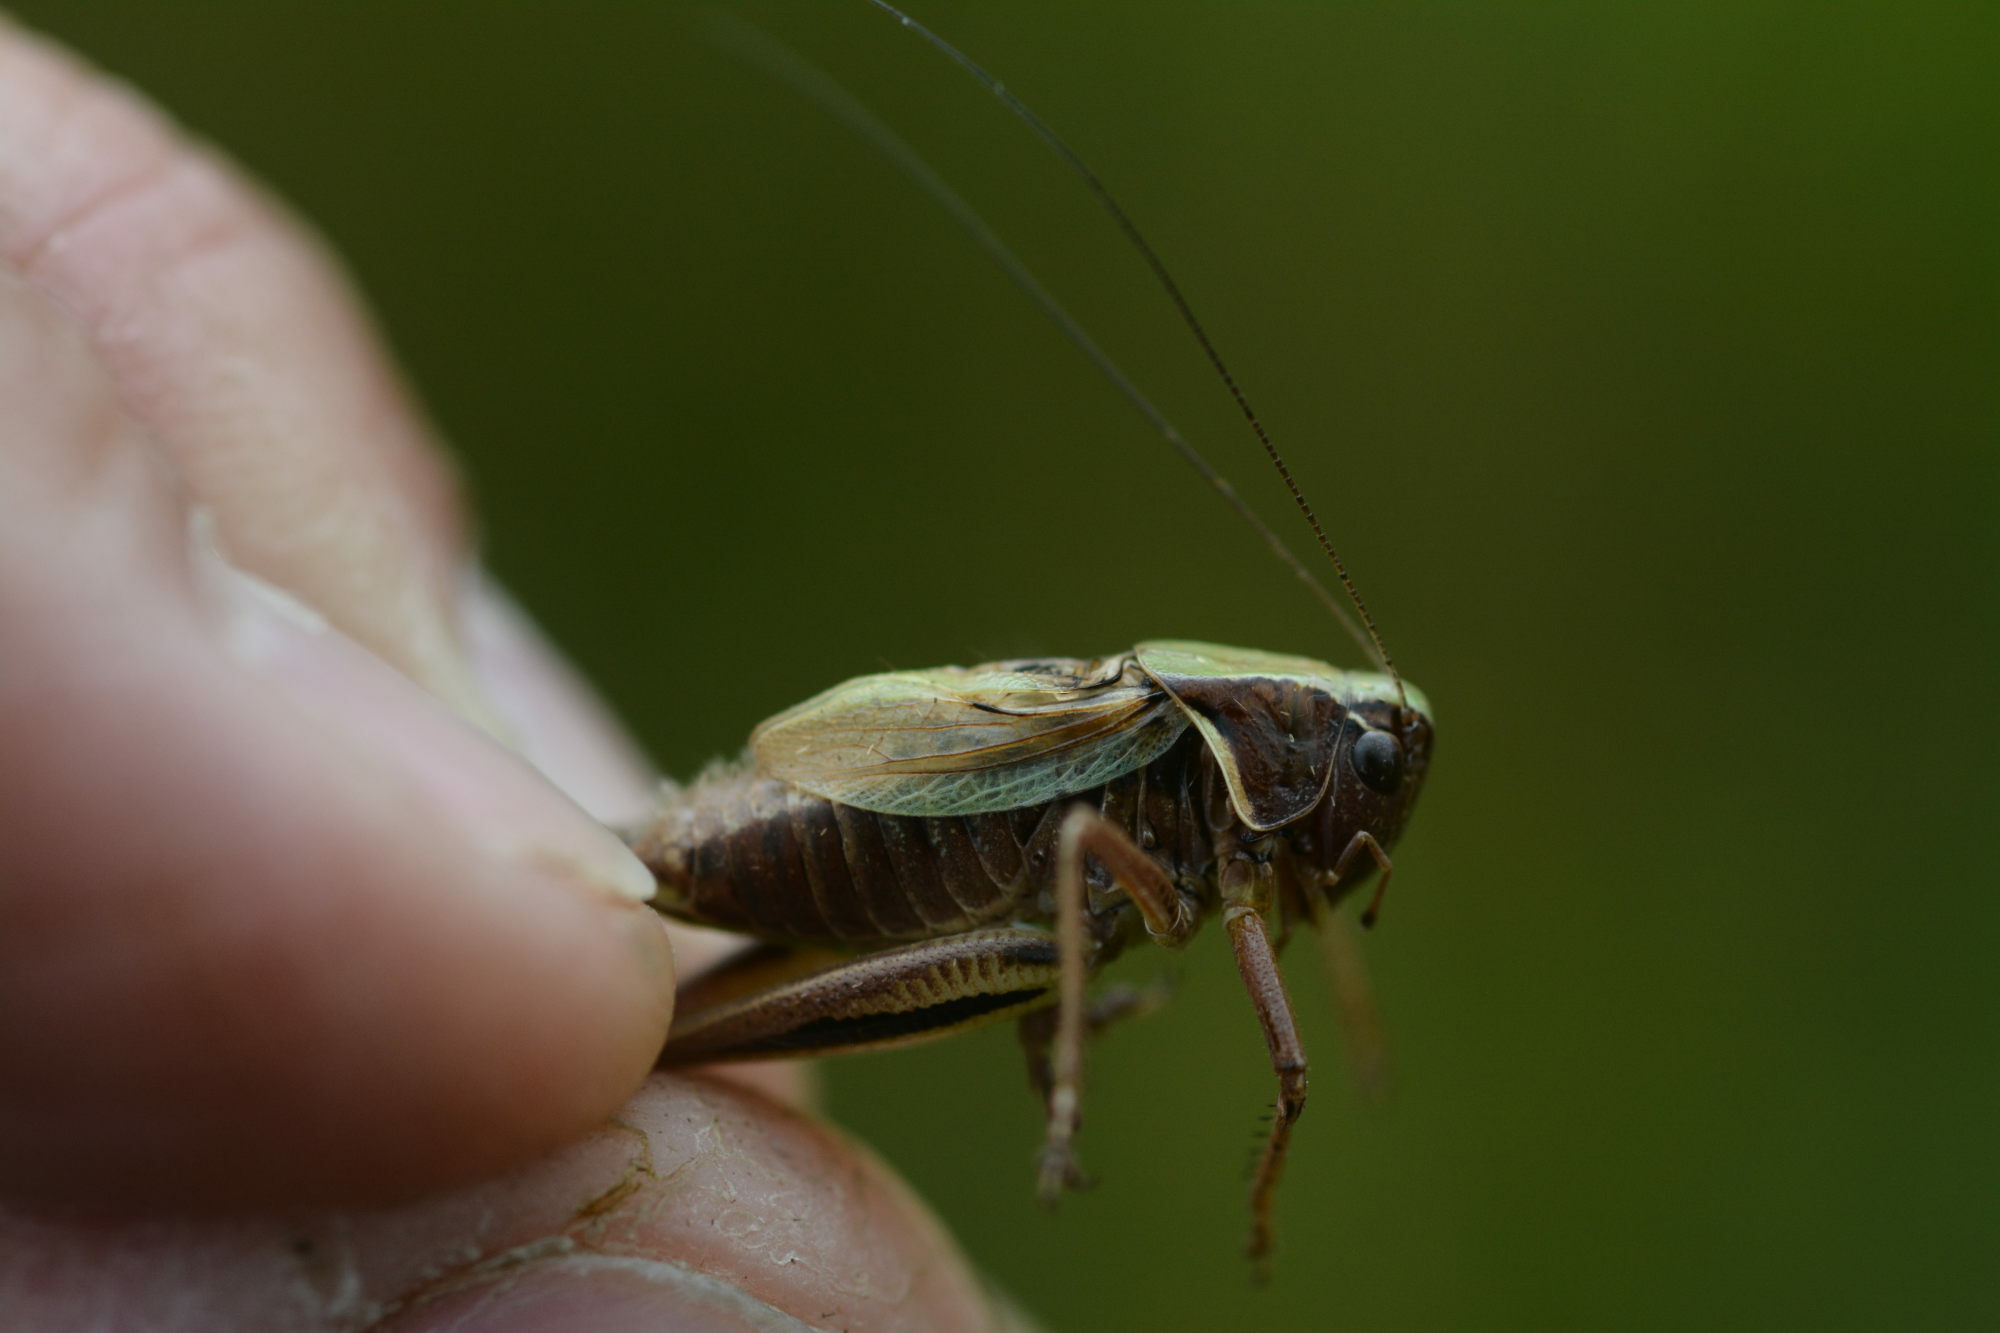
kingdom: Animalia
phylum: Arthropoda
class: Insecta
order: Orthoptera
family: Tettigoniidae
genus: Metrioptera
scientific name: Metrioptera brachyptera
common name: Bog bush-cricket
